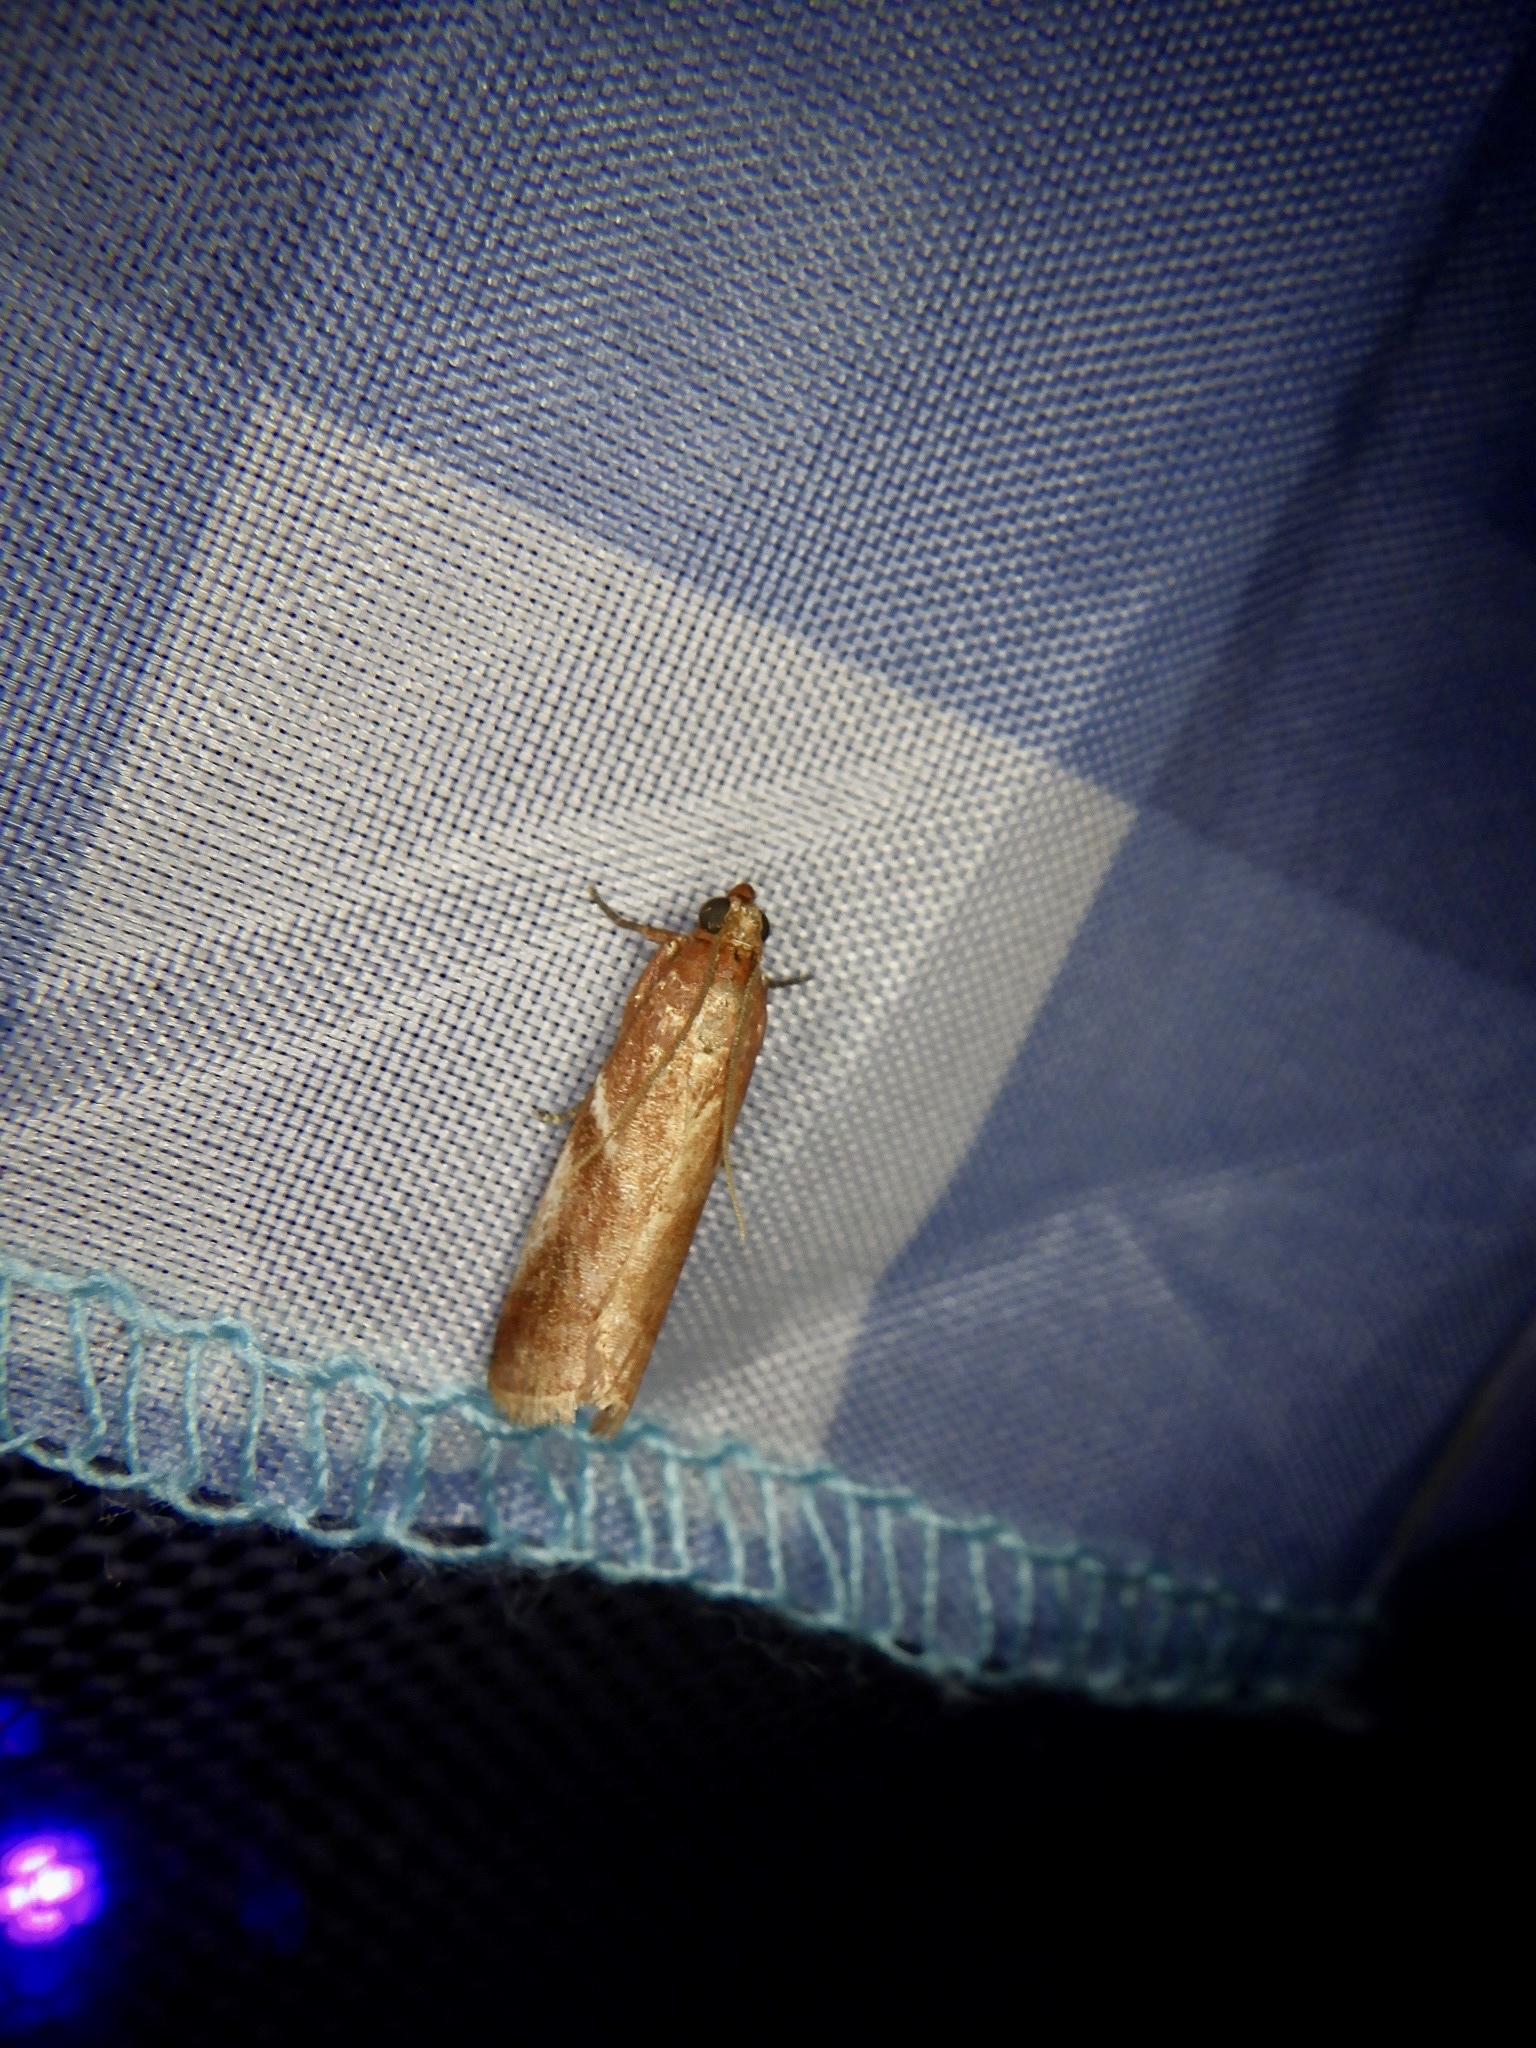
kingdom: Animalia
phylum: Arthropoda
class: Insecta
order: Lepidoptera
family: Pyralidae
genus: Acrobasis
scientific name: Acrobasis
